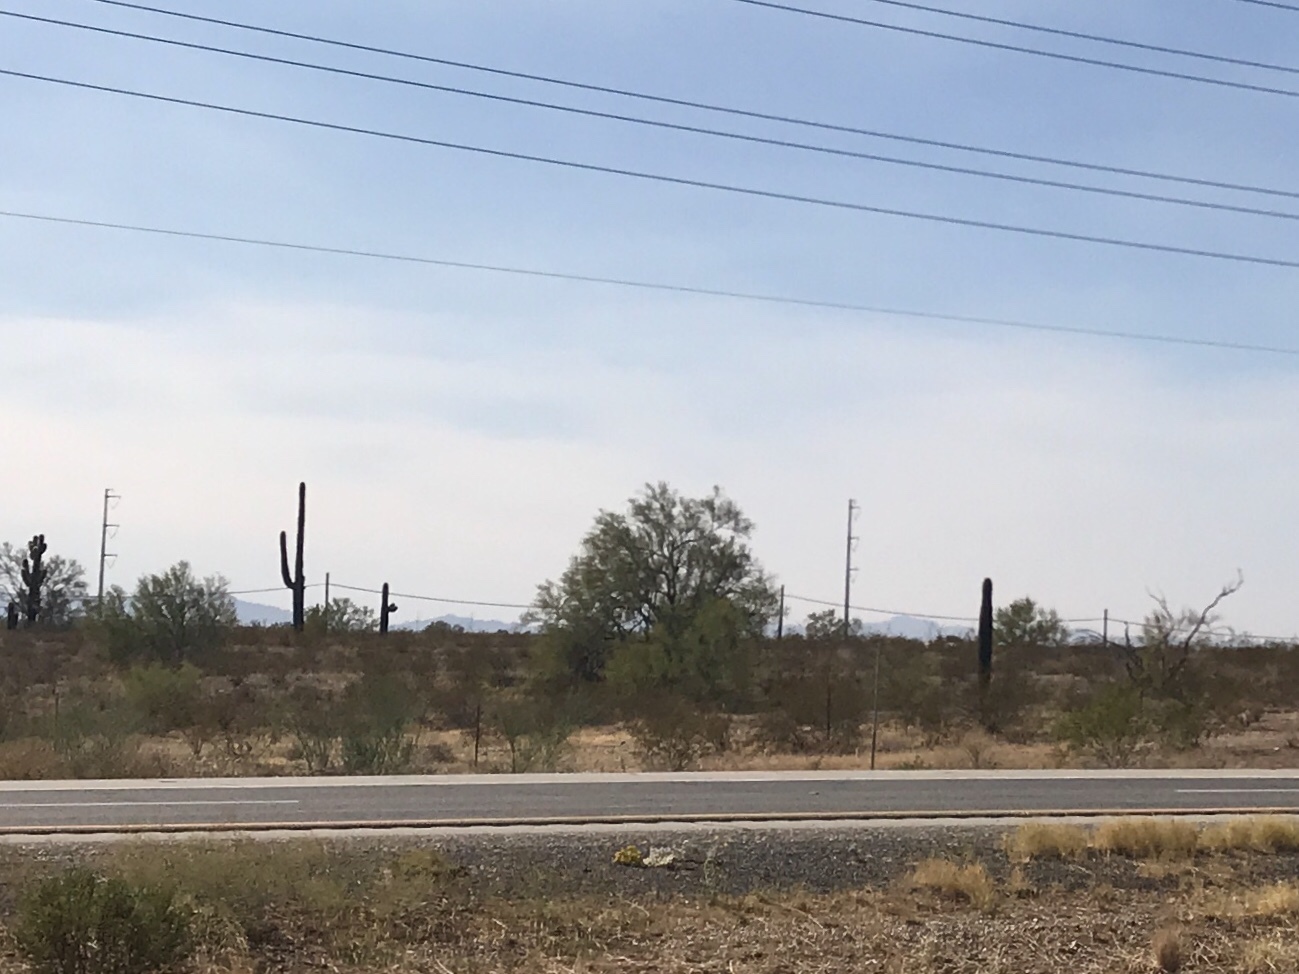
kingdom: Plantae
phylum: Tracheophyta
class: Magnoliopsida
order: Caryophyllales
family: Cactaceae
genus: Carnegiea
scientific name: Carnegiea gigantea
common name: Saguaro
